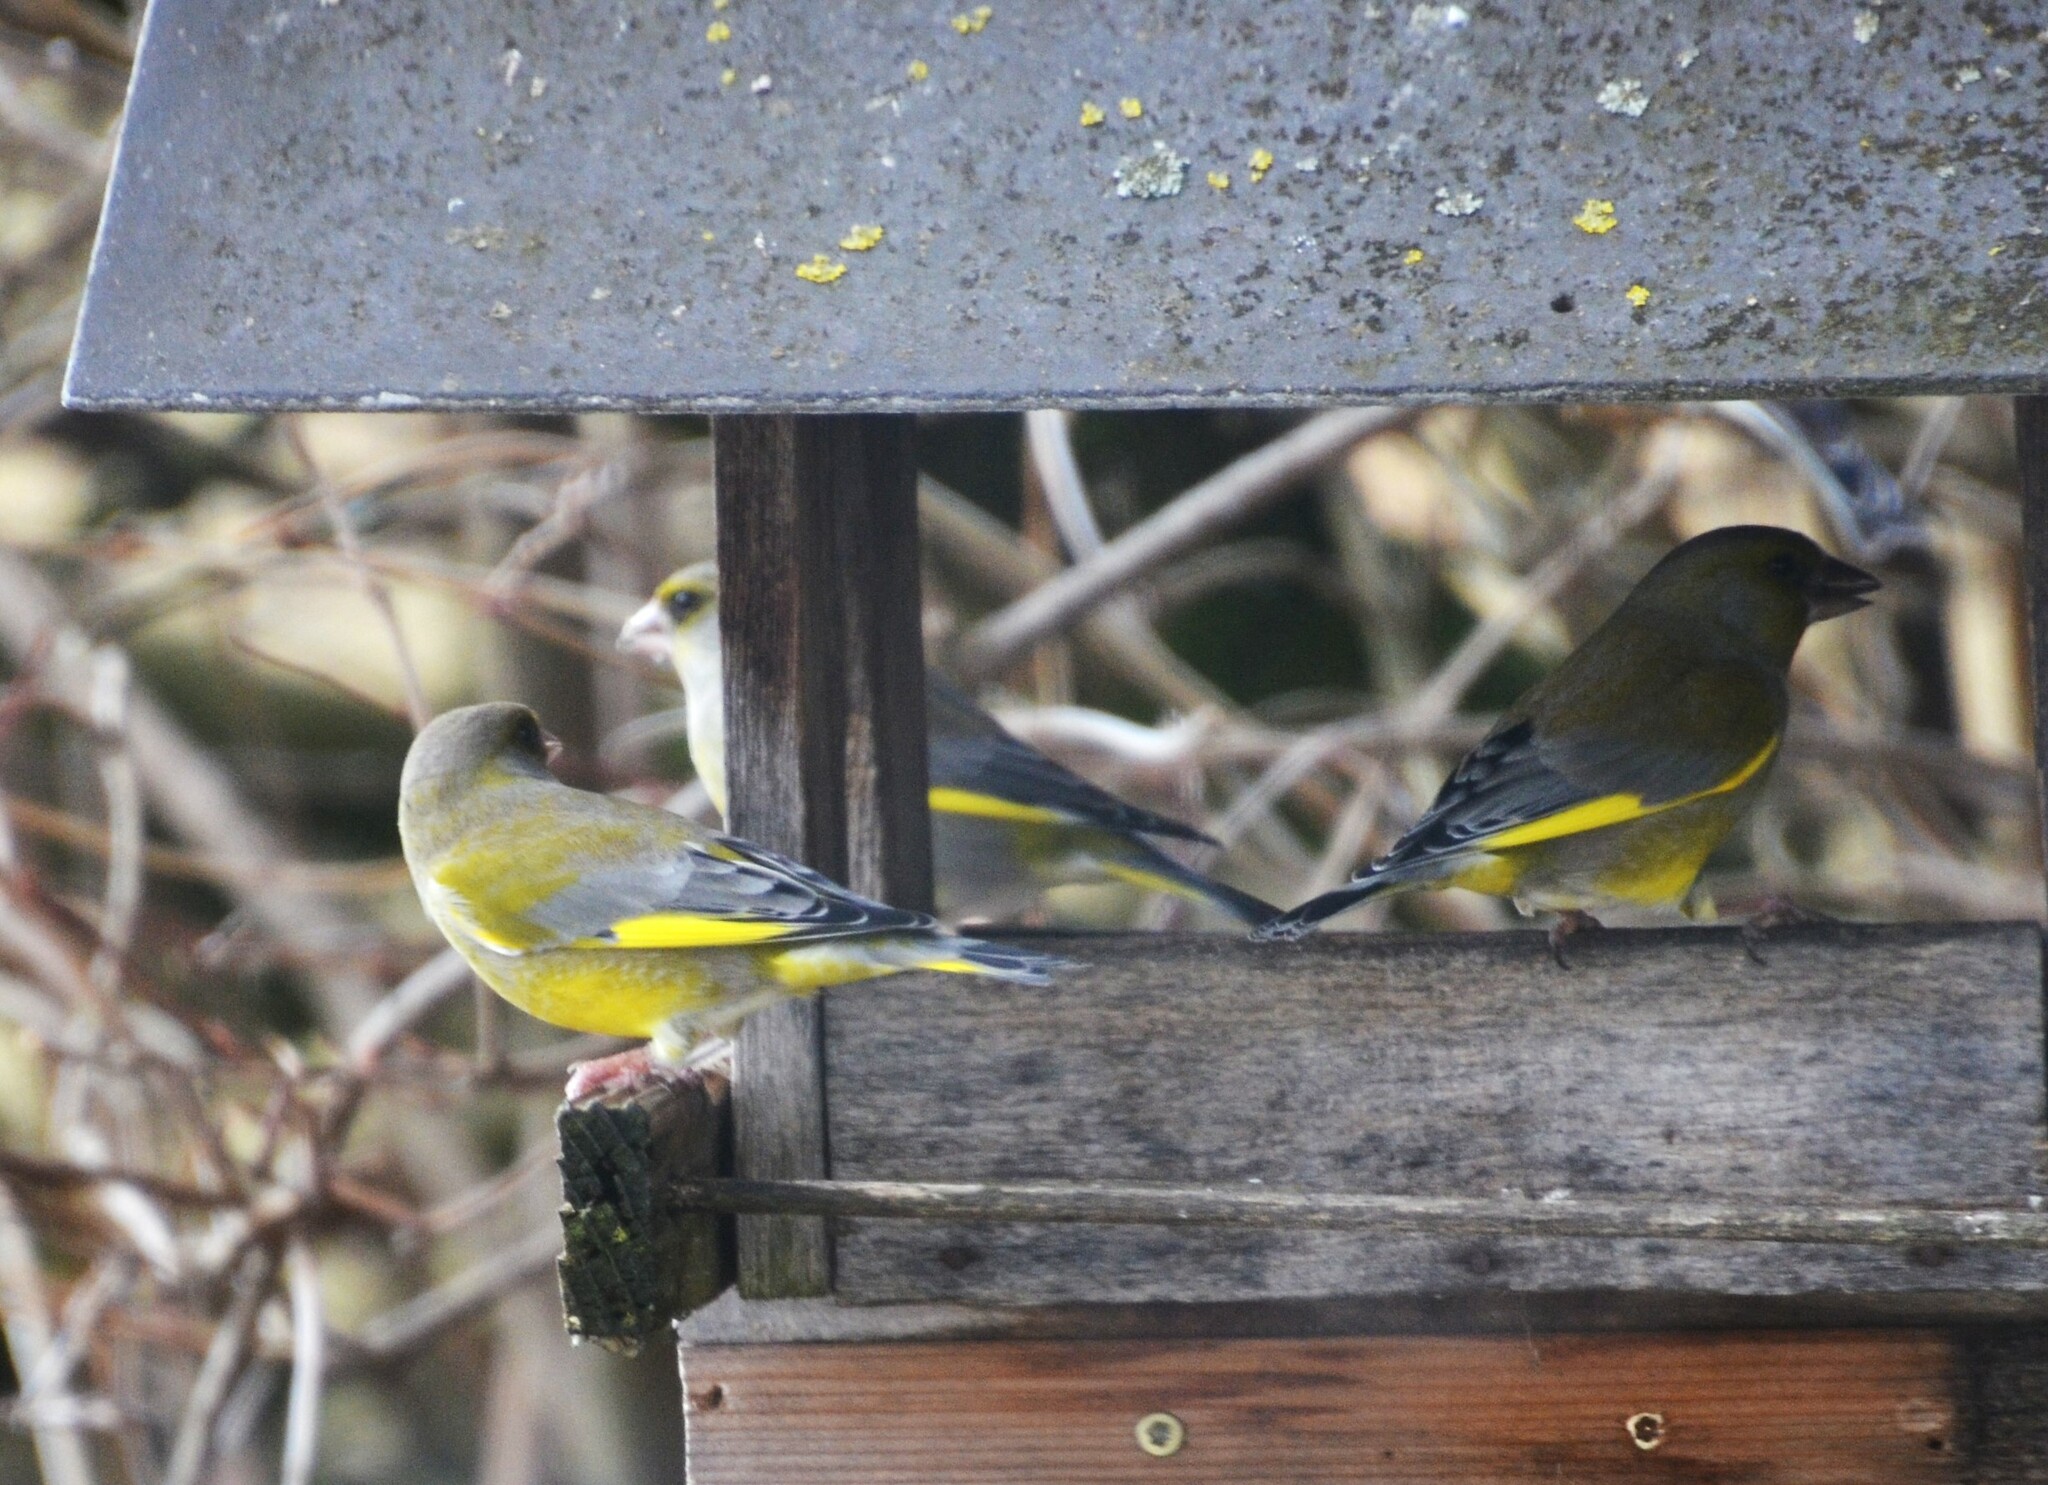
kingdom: Plantae
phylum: Tracheophyta
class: Liliopsida
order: Poales
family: Poaceae
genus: Chloris
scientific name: Chloris chloris
